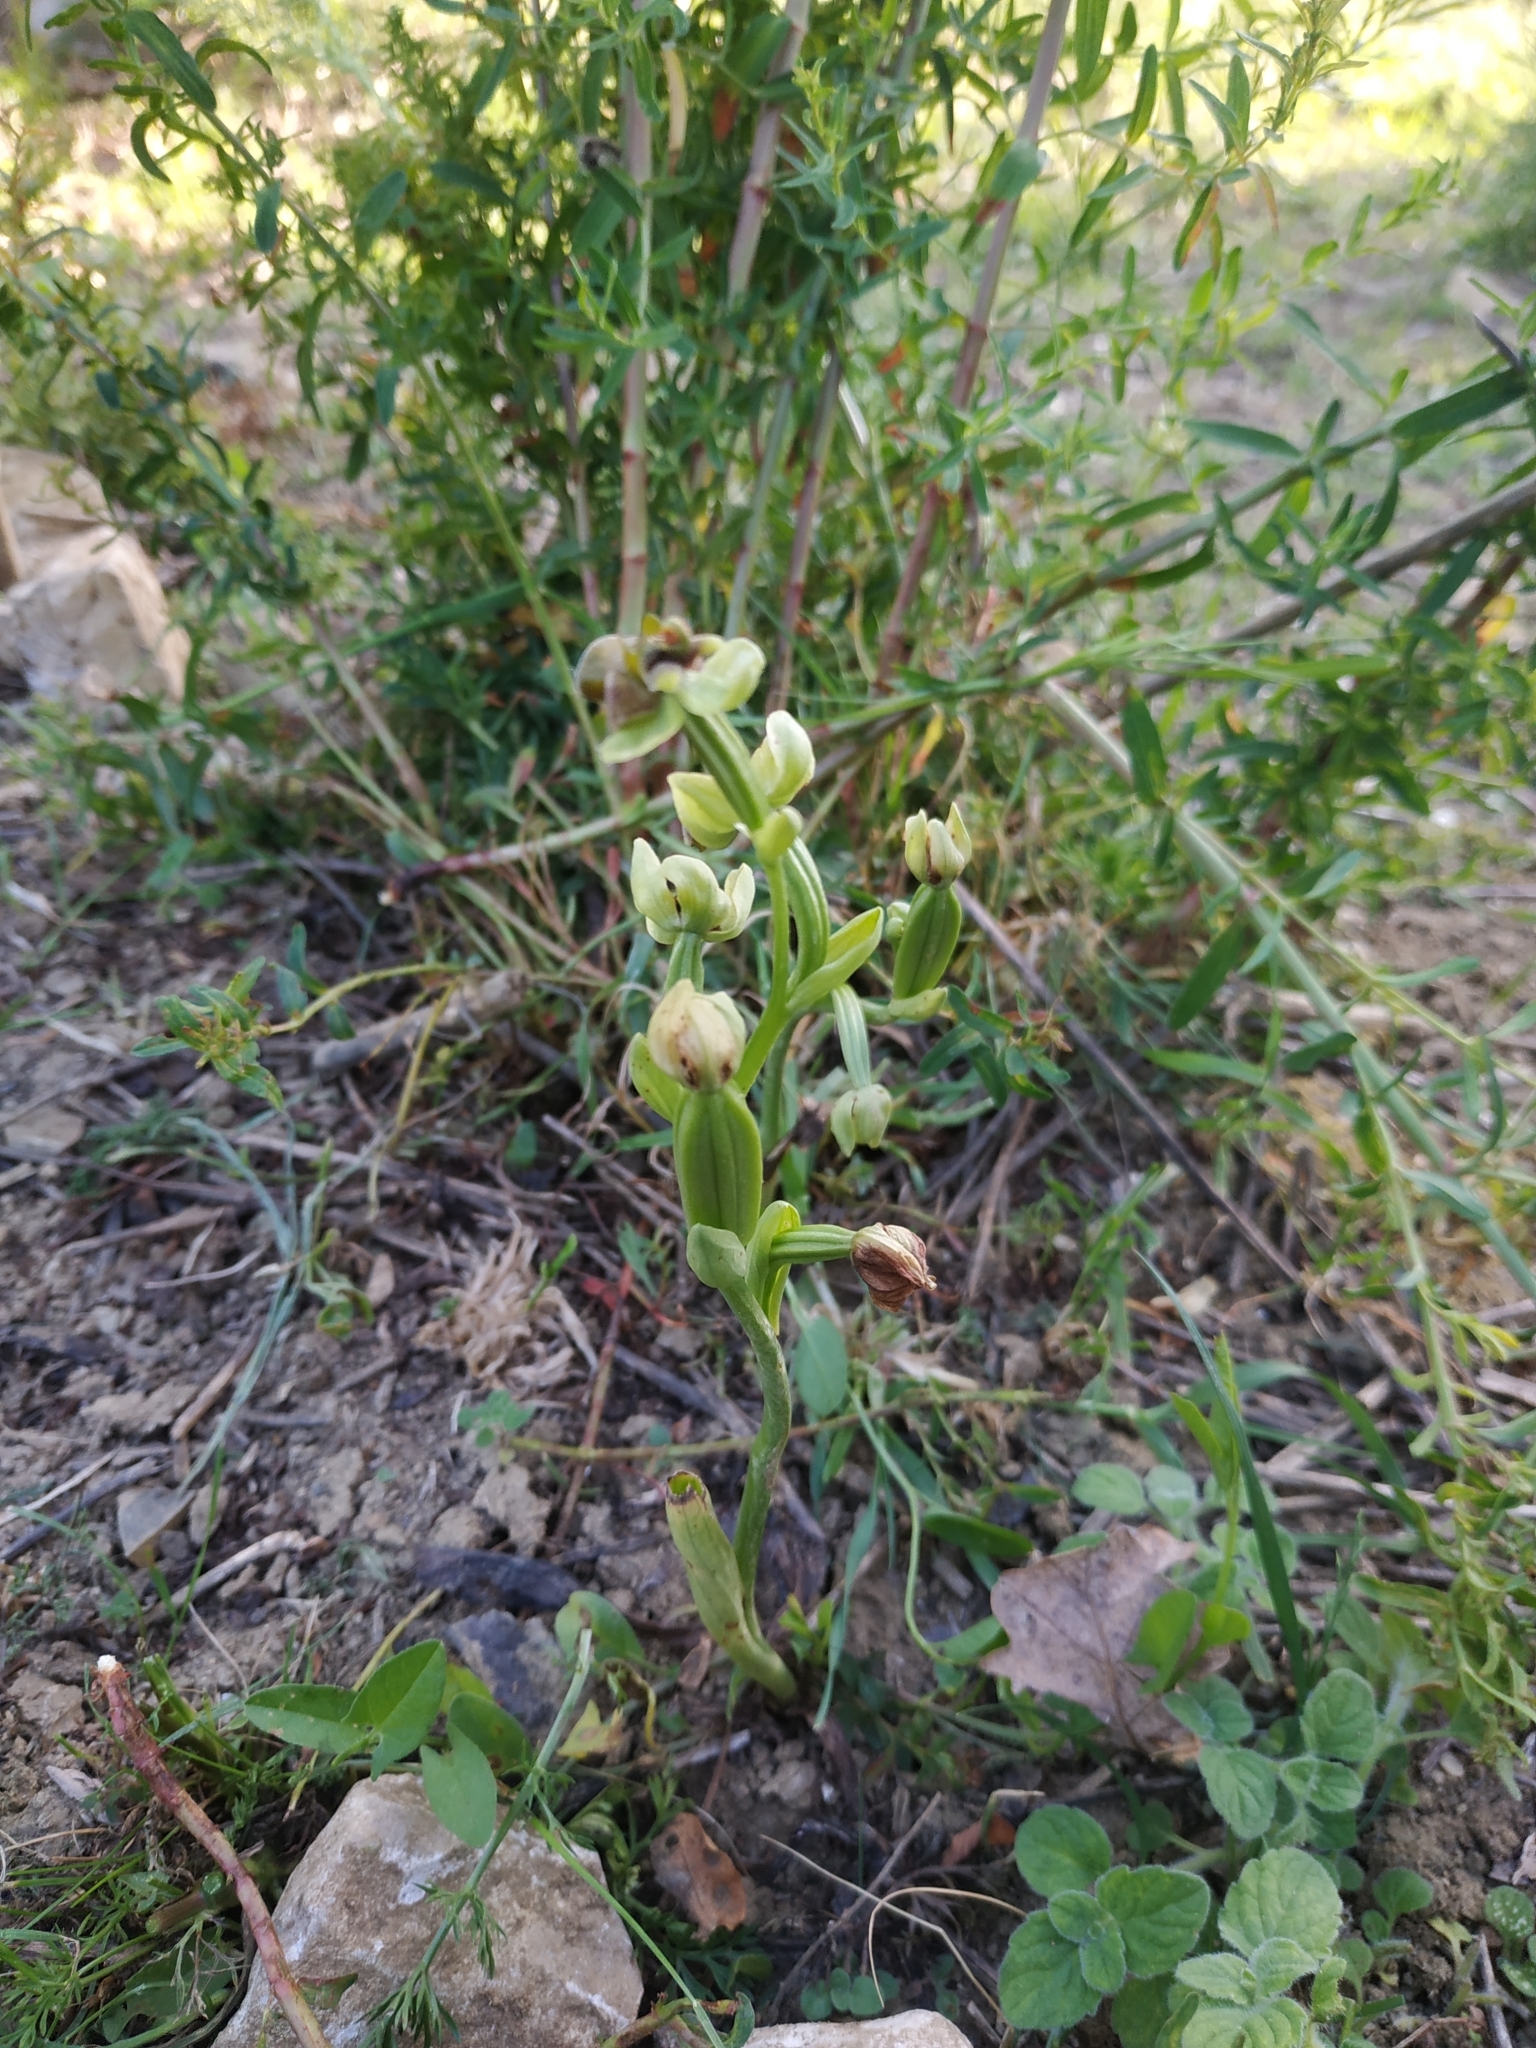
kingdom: Plantae
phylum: Tracheophyta
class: Liliopsida
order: Asparagales
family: Orchidaceae
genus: Ophrys
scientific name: Ophrys bombyliflora
